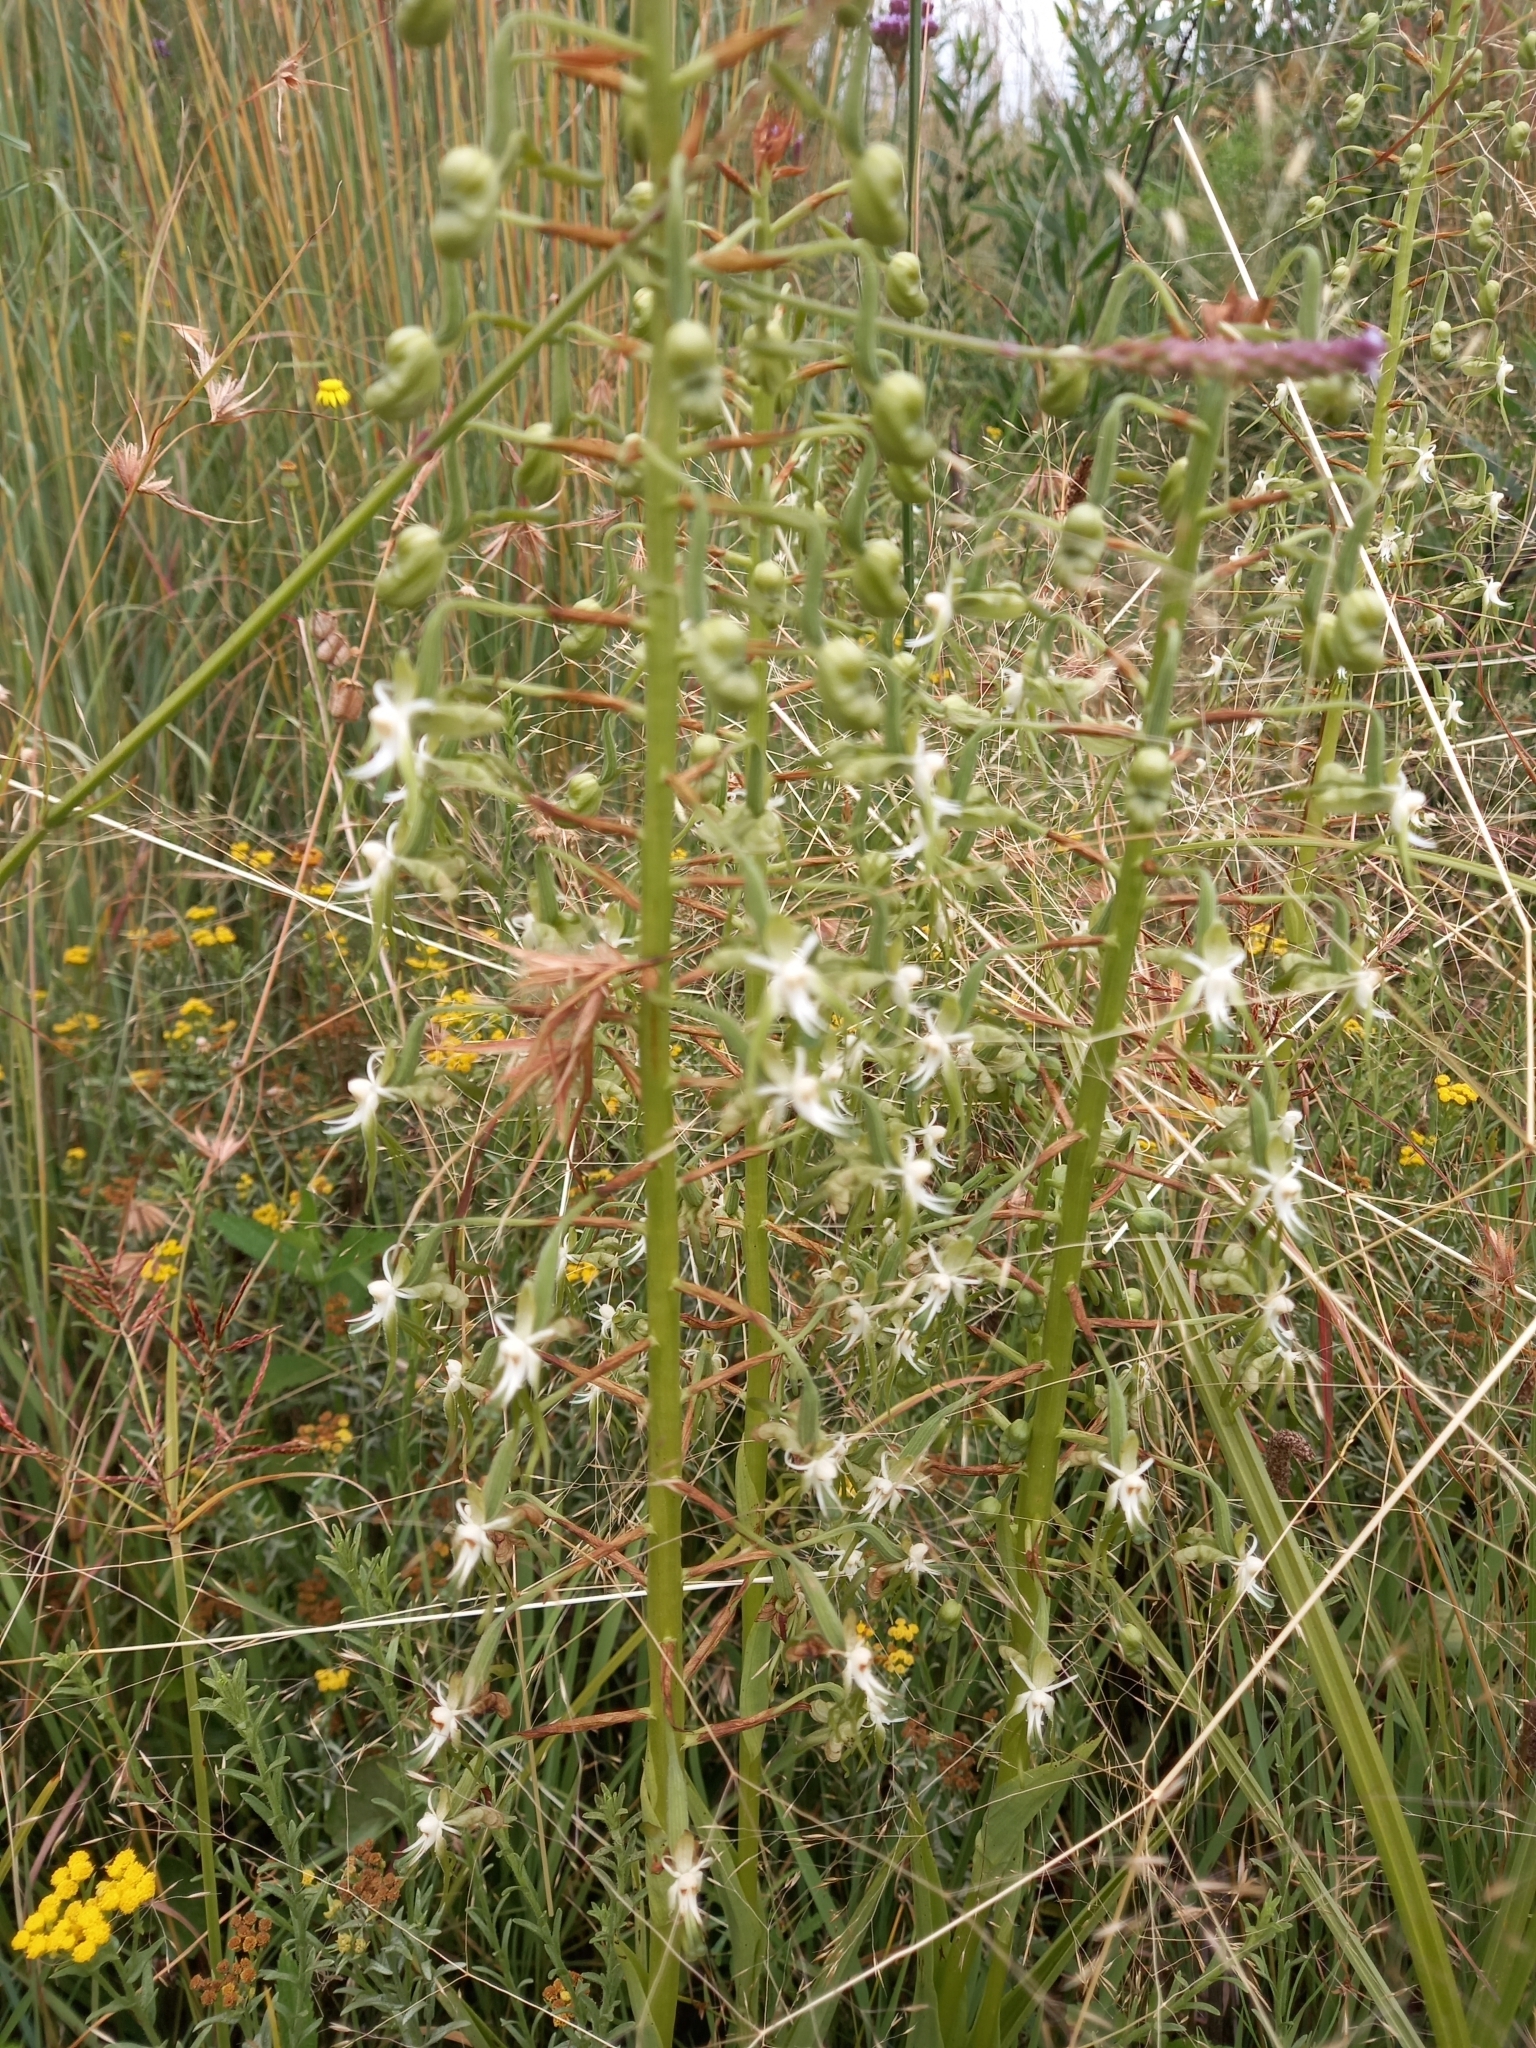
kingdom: Plantae
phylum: Tracheophyta
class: Liliopsida
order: Asparagales
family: Orchidaceae
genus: Habenaria
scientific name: Habenaria schimperiana
